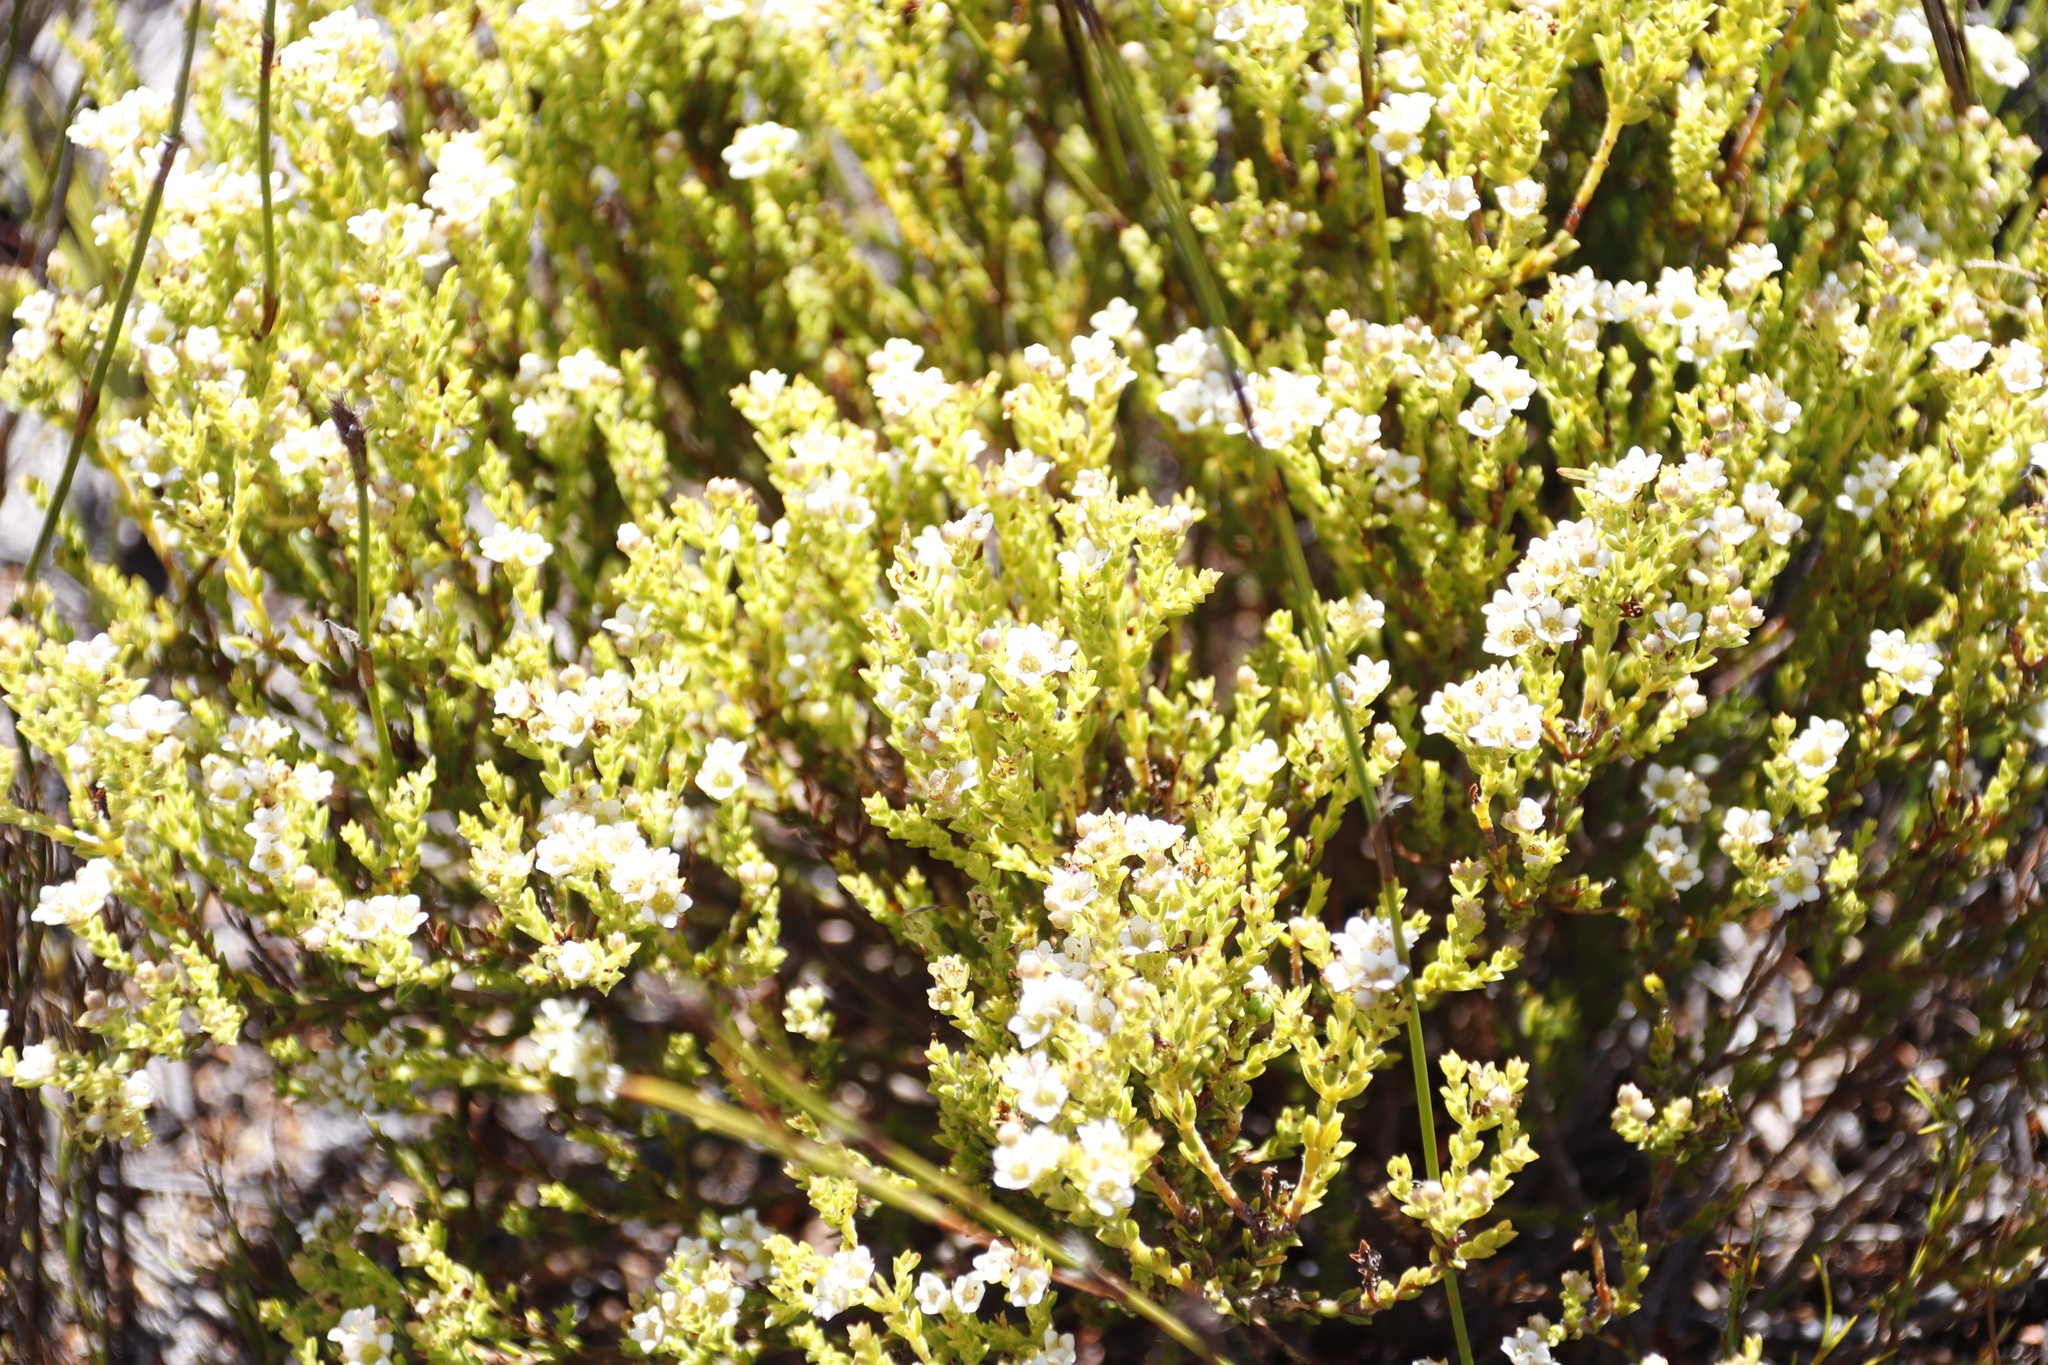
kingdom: Plantae
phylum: Tracheophyta
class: Magnoliopsida
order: Sapindales
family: Rutaceae
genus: Diosma
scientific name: Diosma oppositifolia
